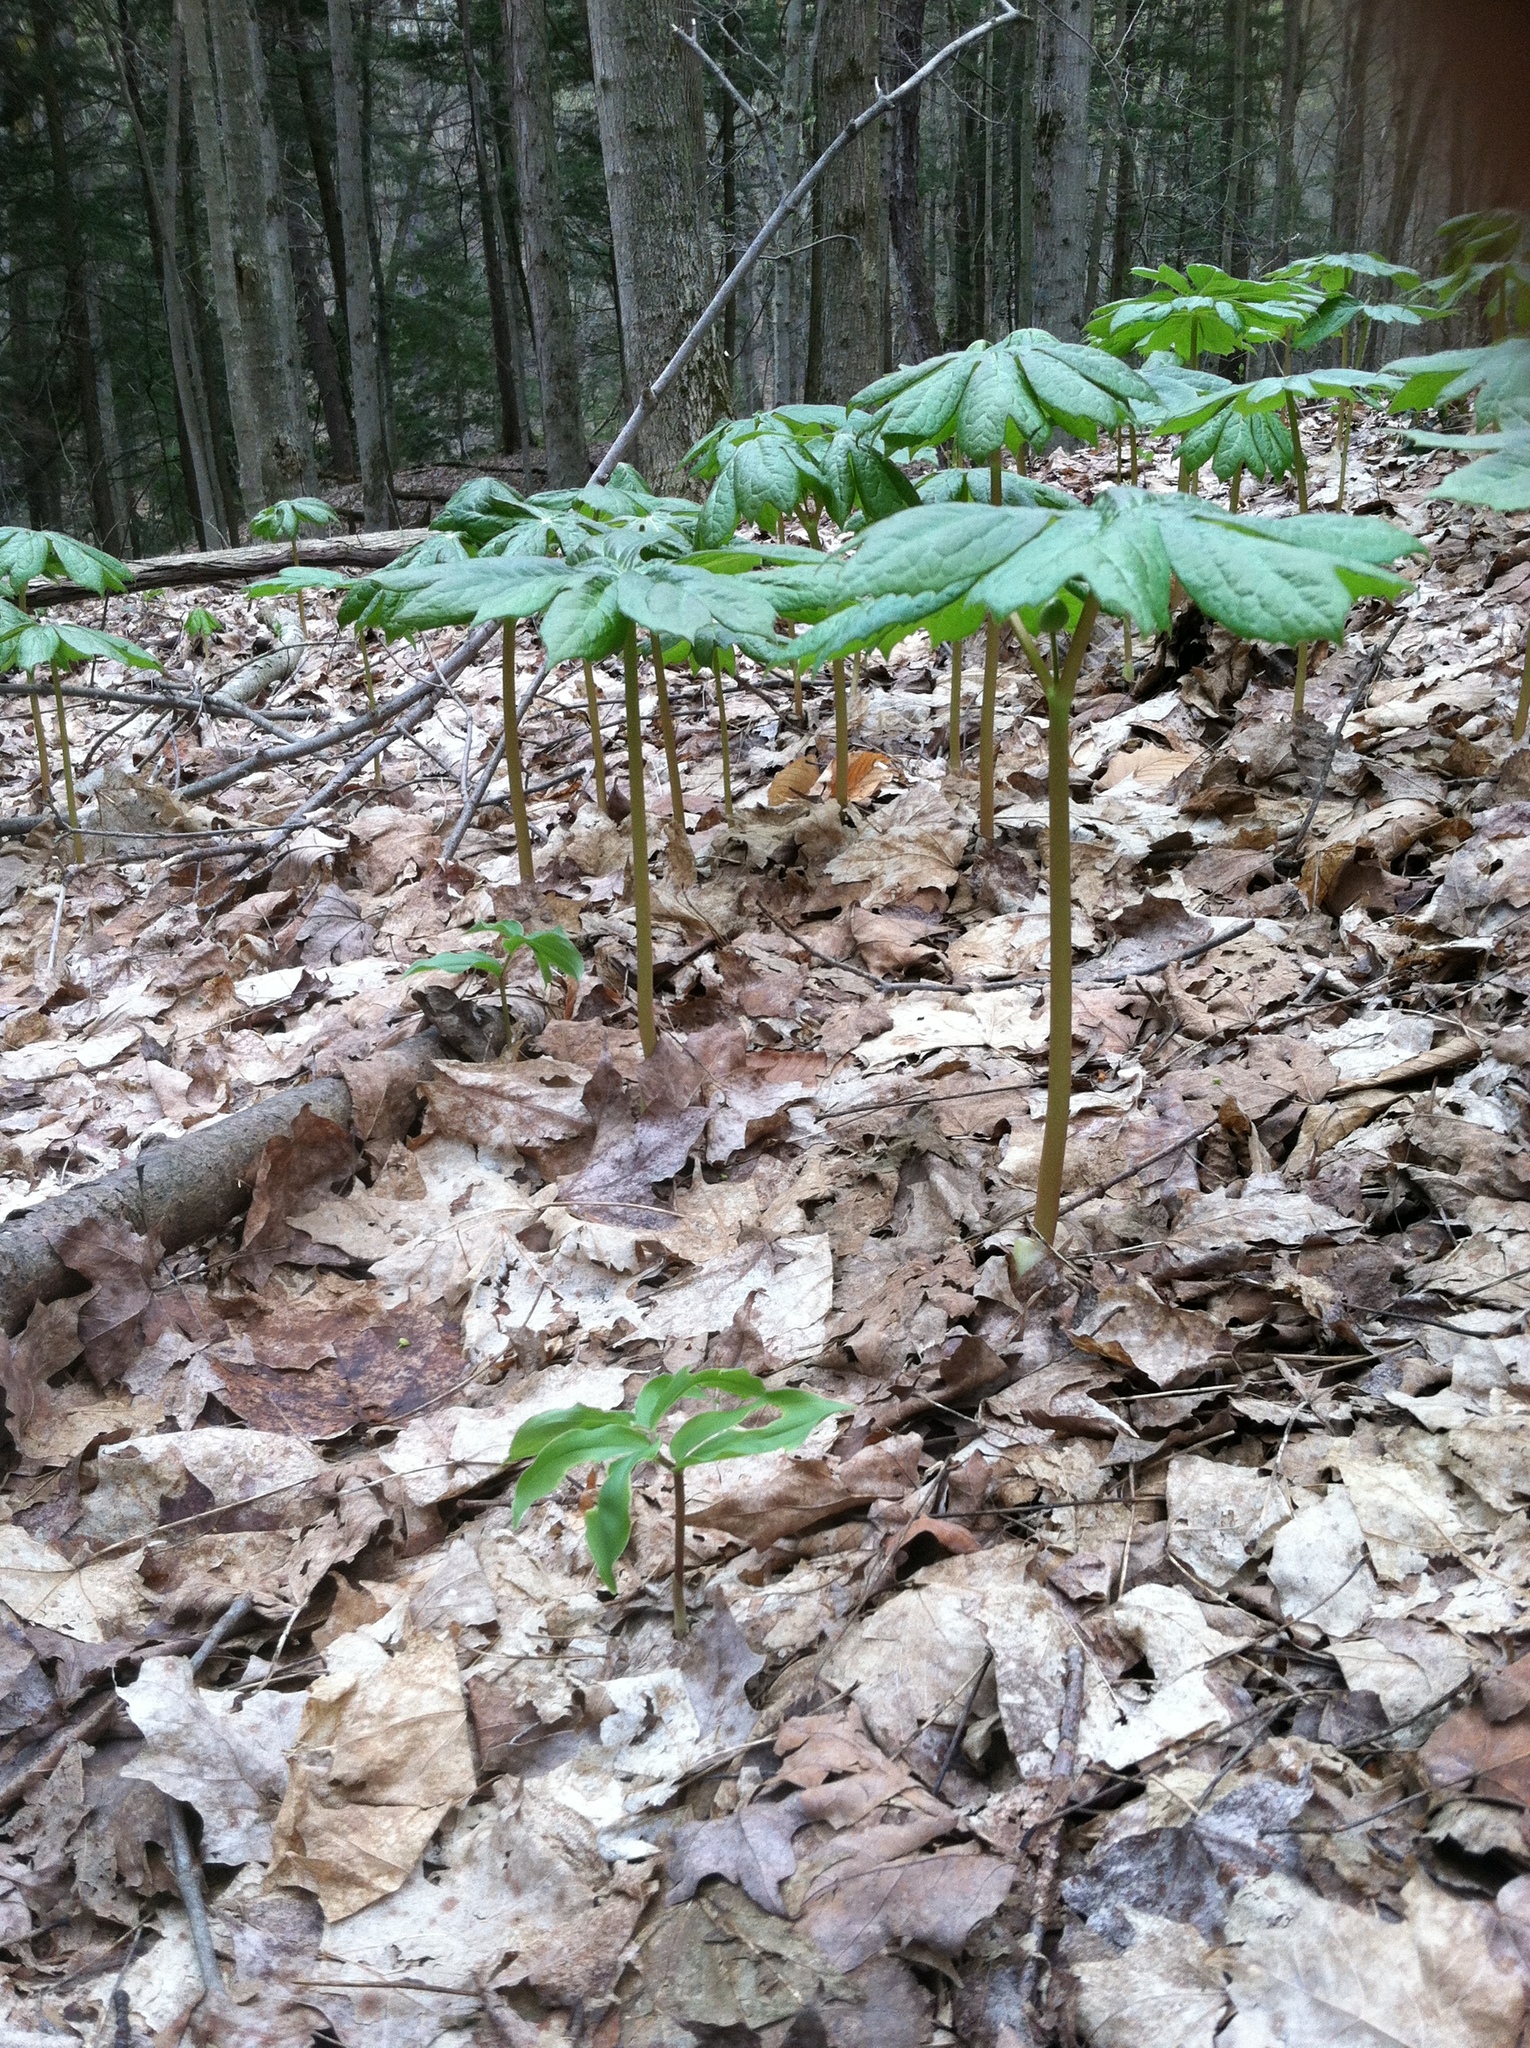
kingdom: Plantae
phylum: Tracheophyta
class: Magnoliopsida
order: Ranunculales
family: Berberidaceae
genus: Podophyllum
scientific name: Podophyllum peltatum
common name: Wild mandrake
